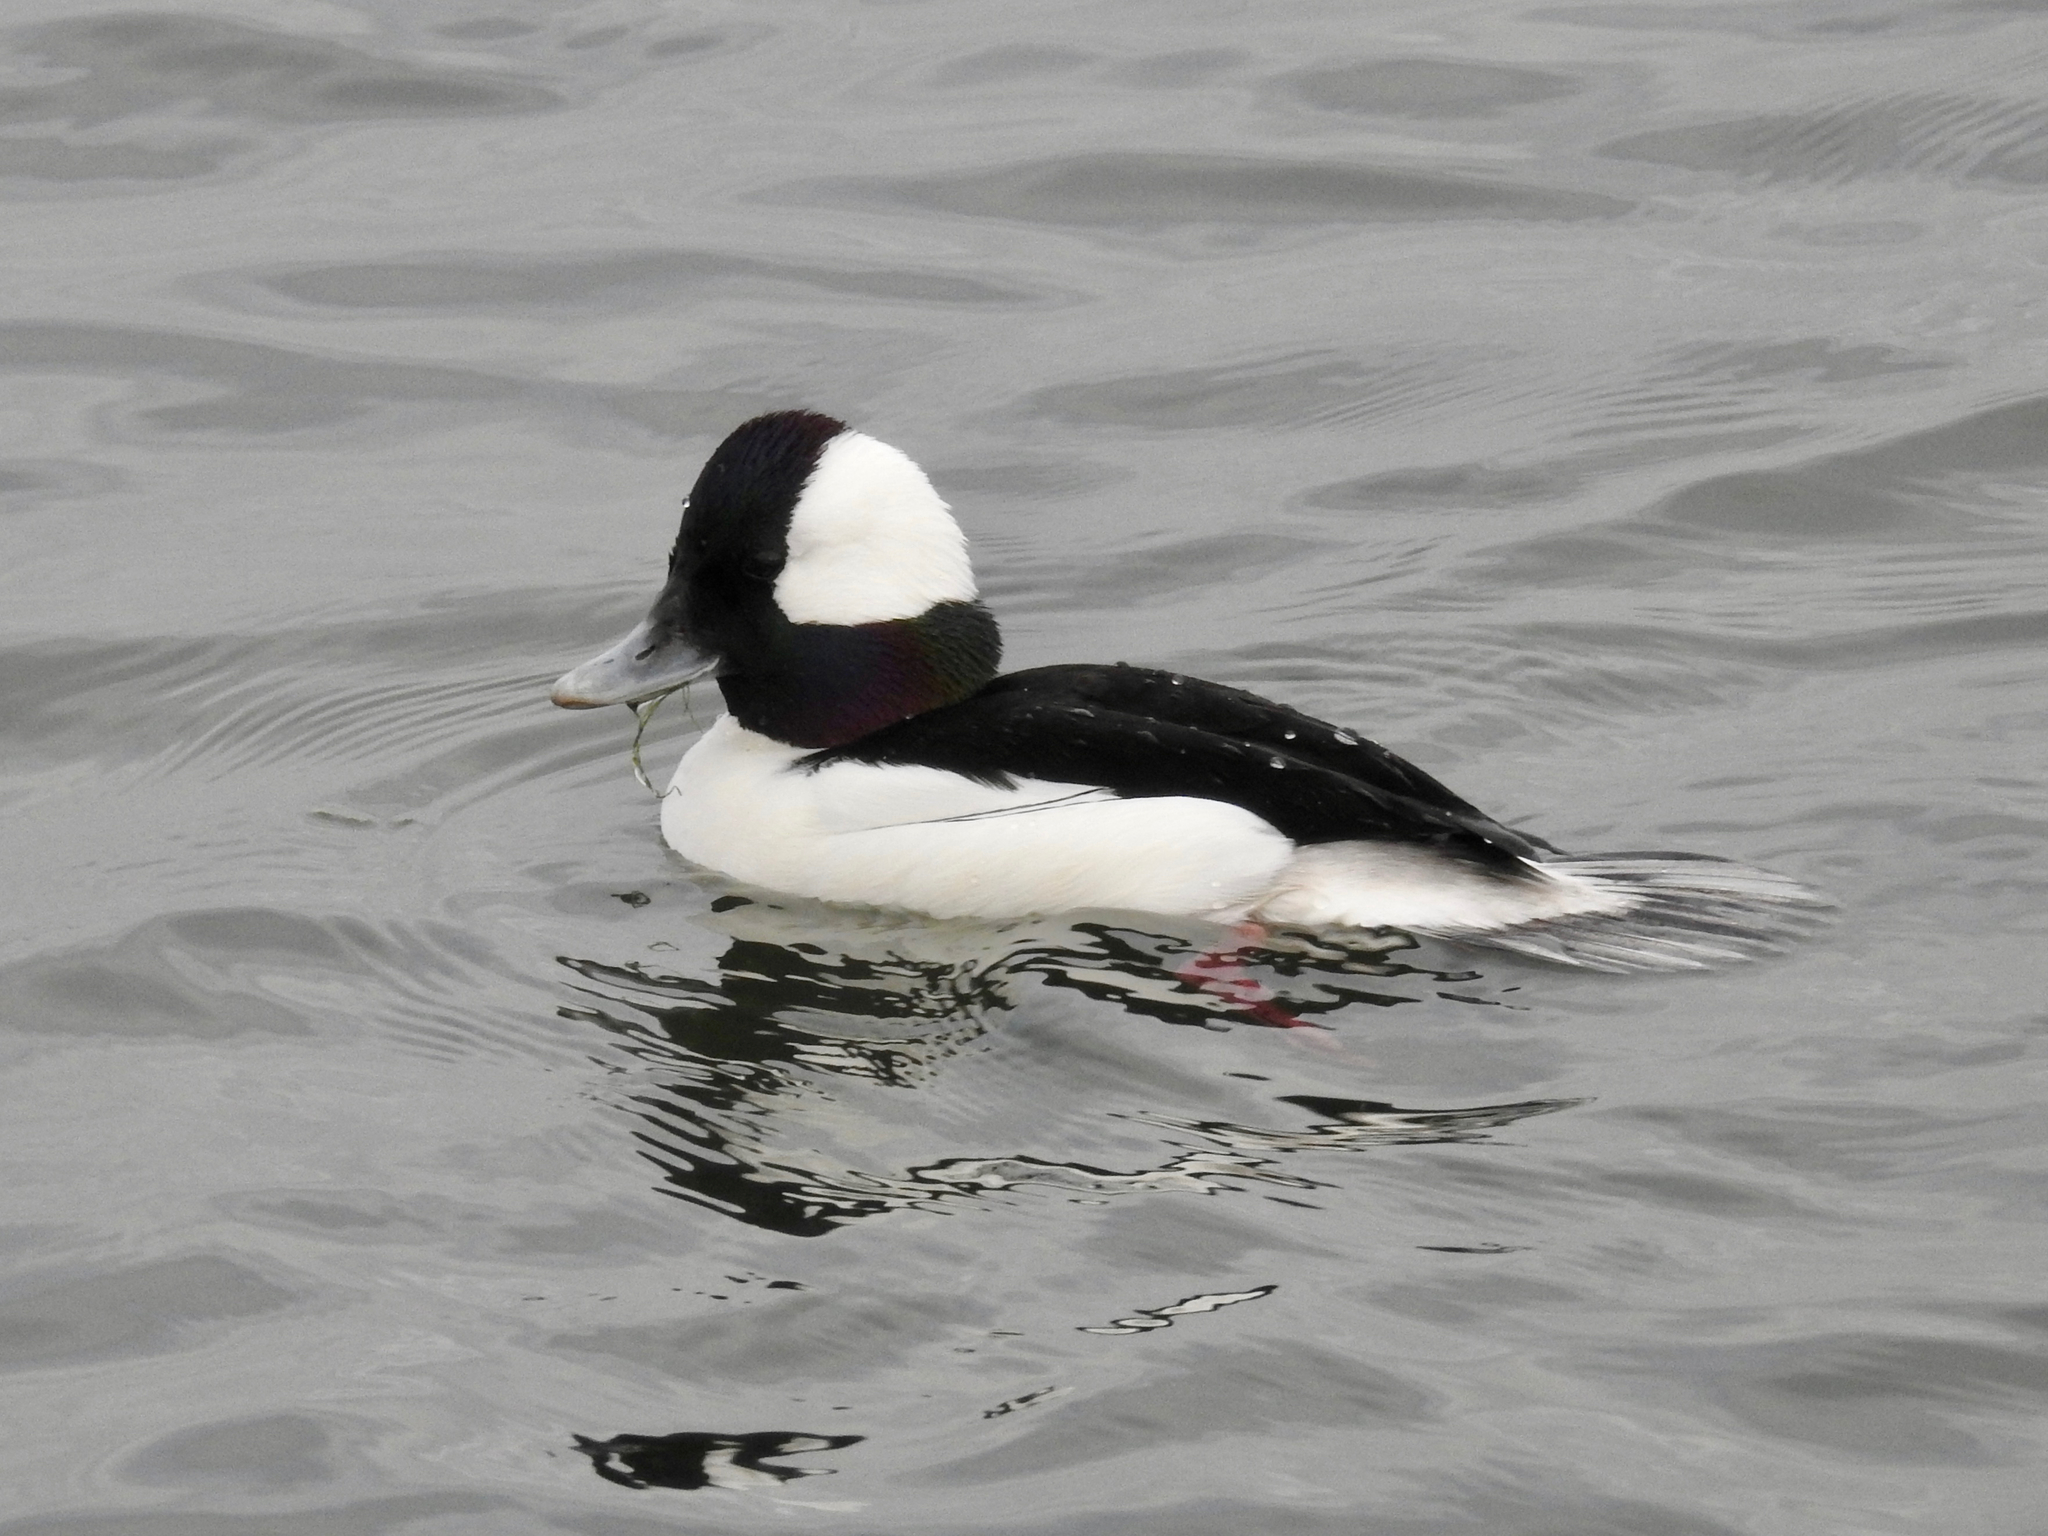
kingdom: Animalia
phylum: Chordata
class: Aves
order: Anseriformes
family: Anatidae
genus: Bucephala
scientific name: Bucephala albeola
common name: Bufflehead
